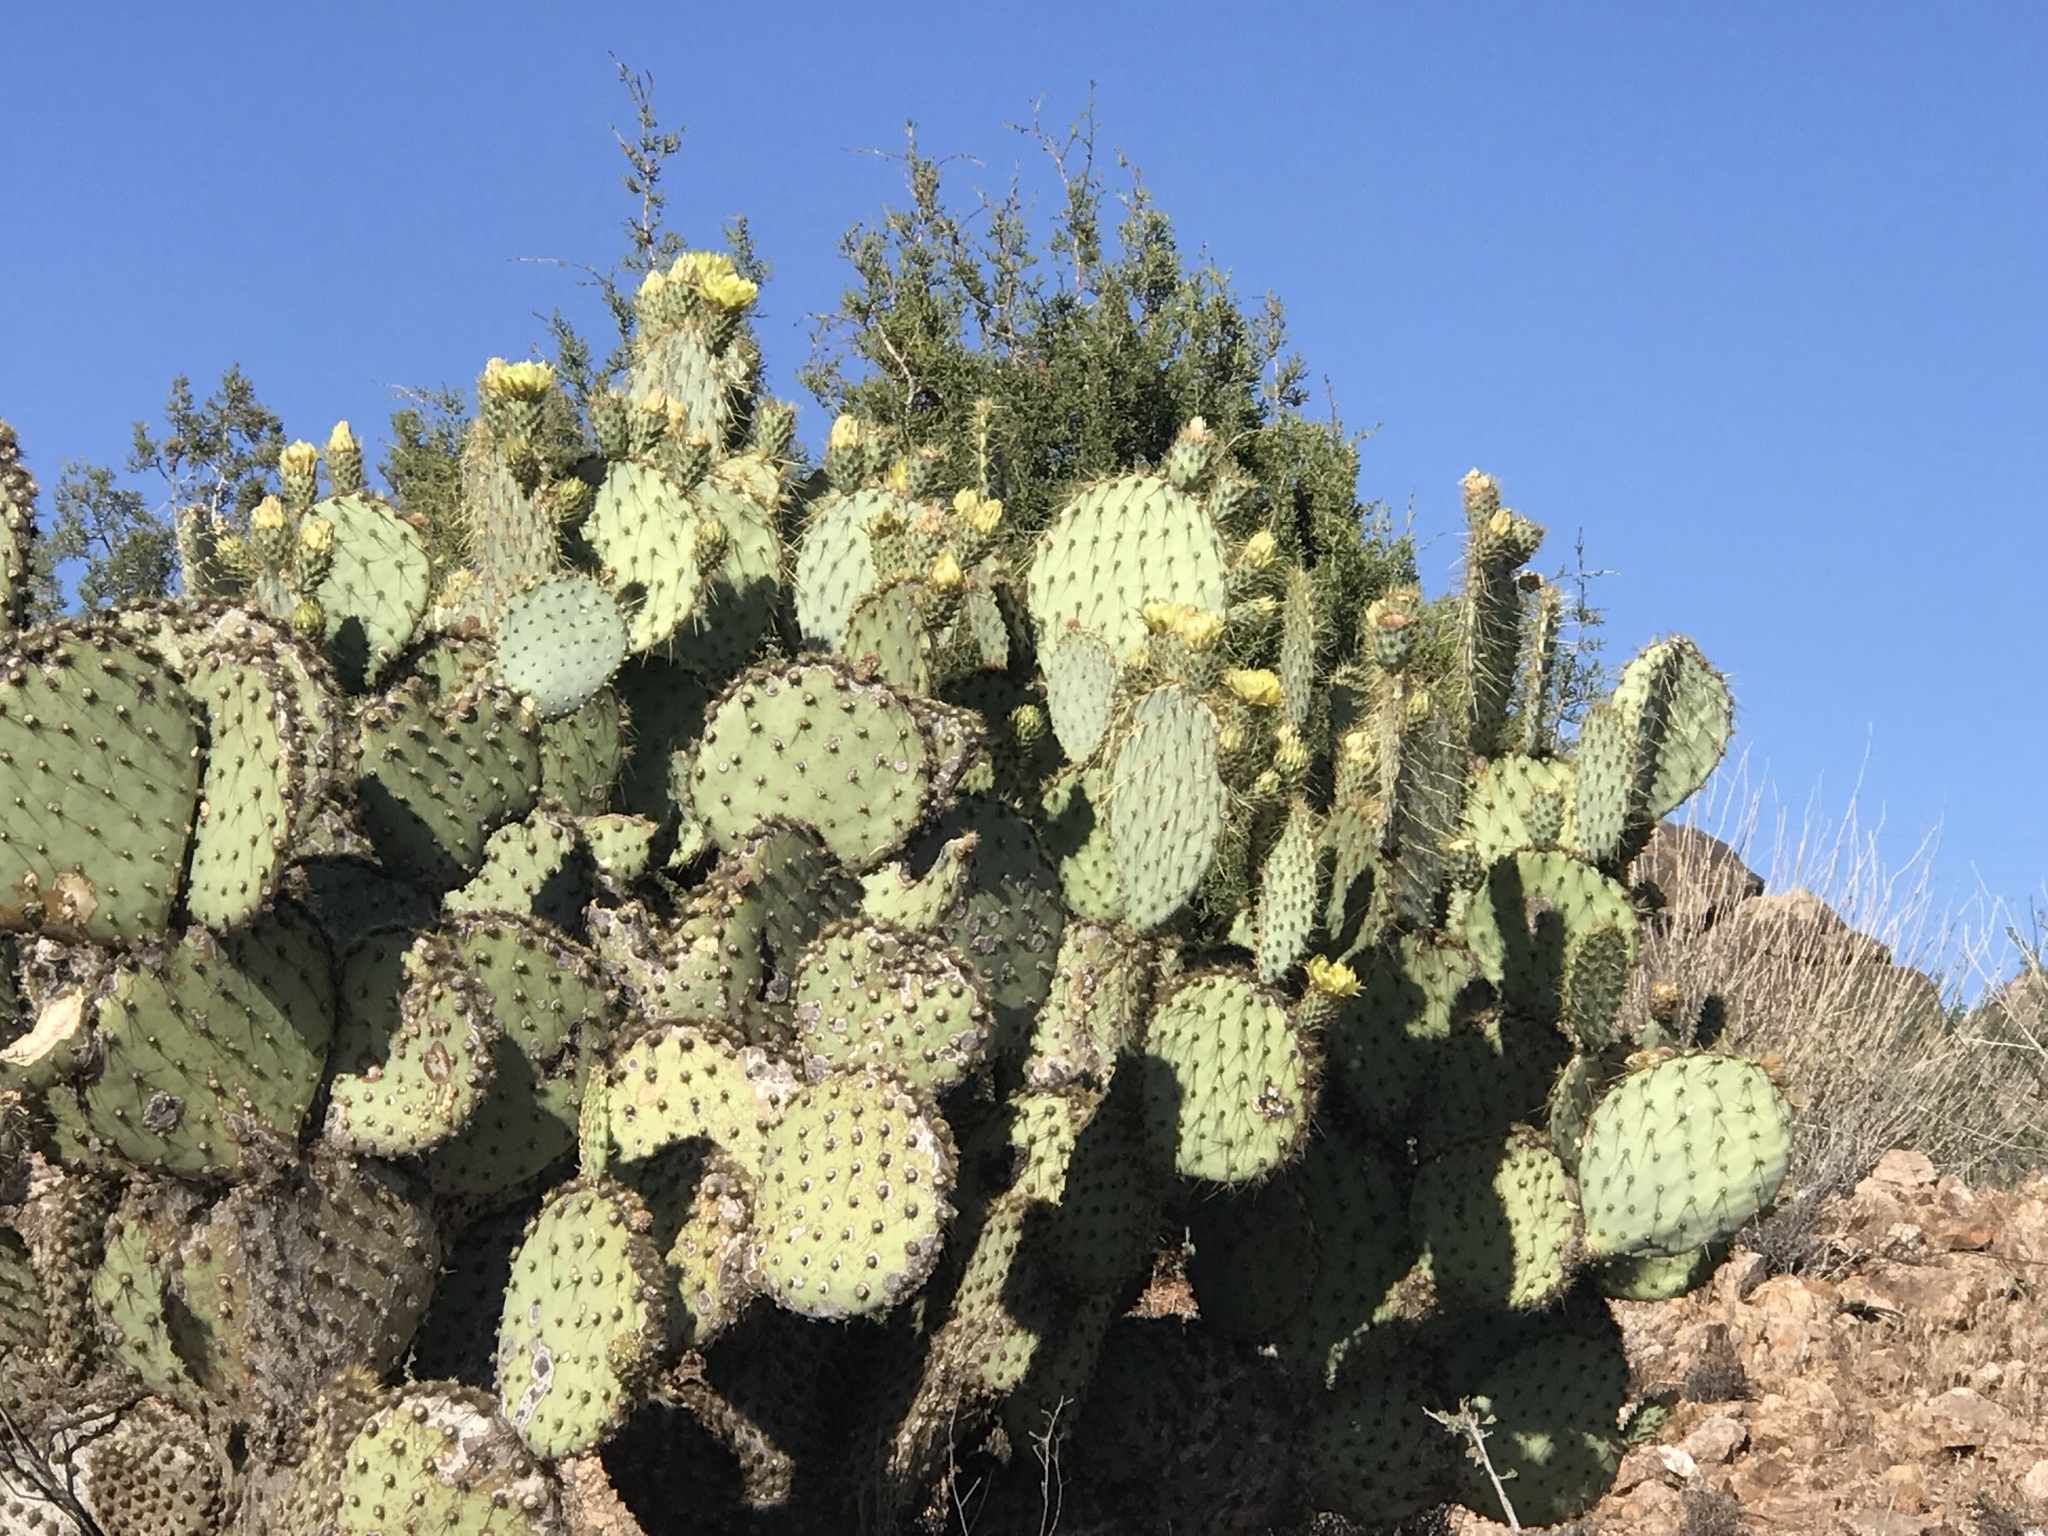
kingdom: Plantae
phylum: Tracheophyta
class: Magnoliopsida
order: Caryophyllales
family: Cactaceae
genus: Opuntia
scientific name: Opuntia chlorotica
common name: Dollar-joint prickly-pear
